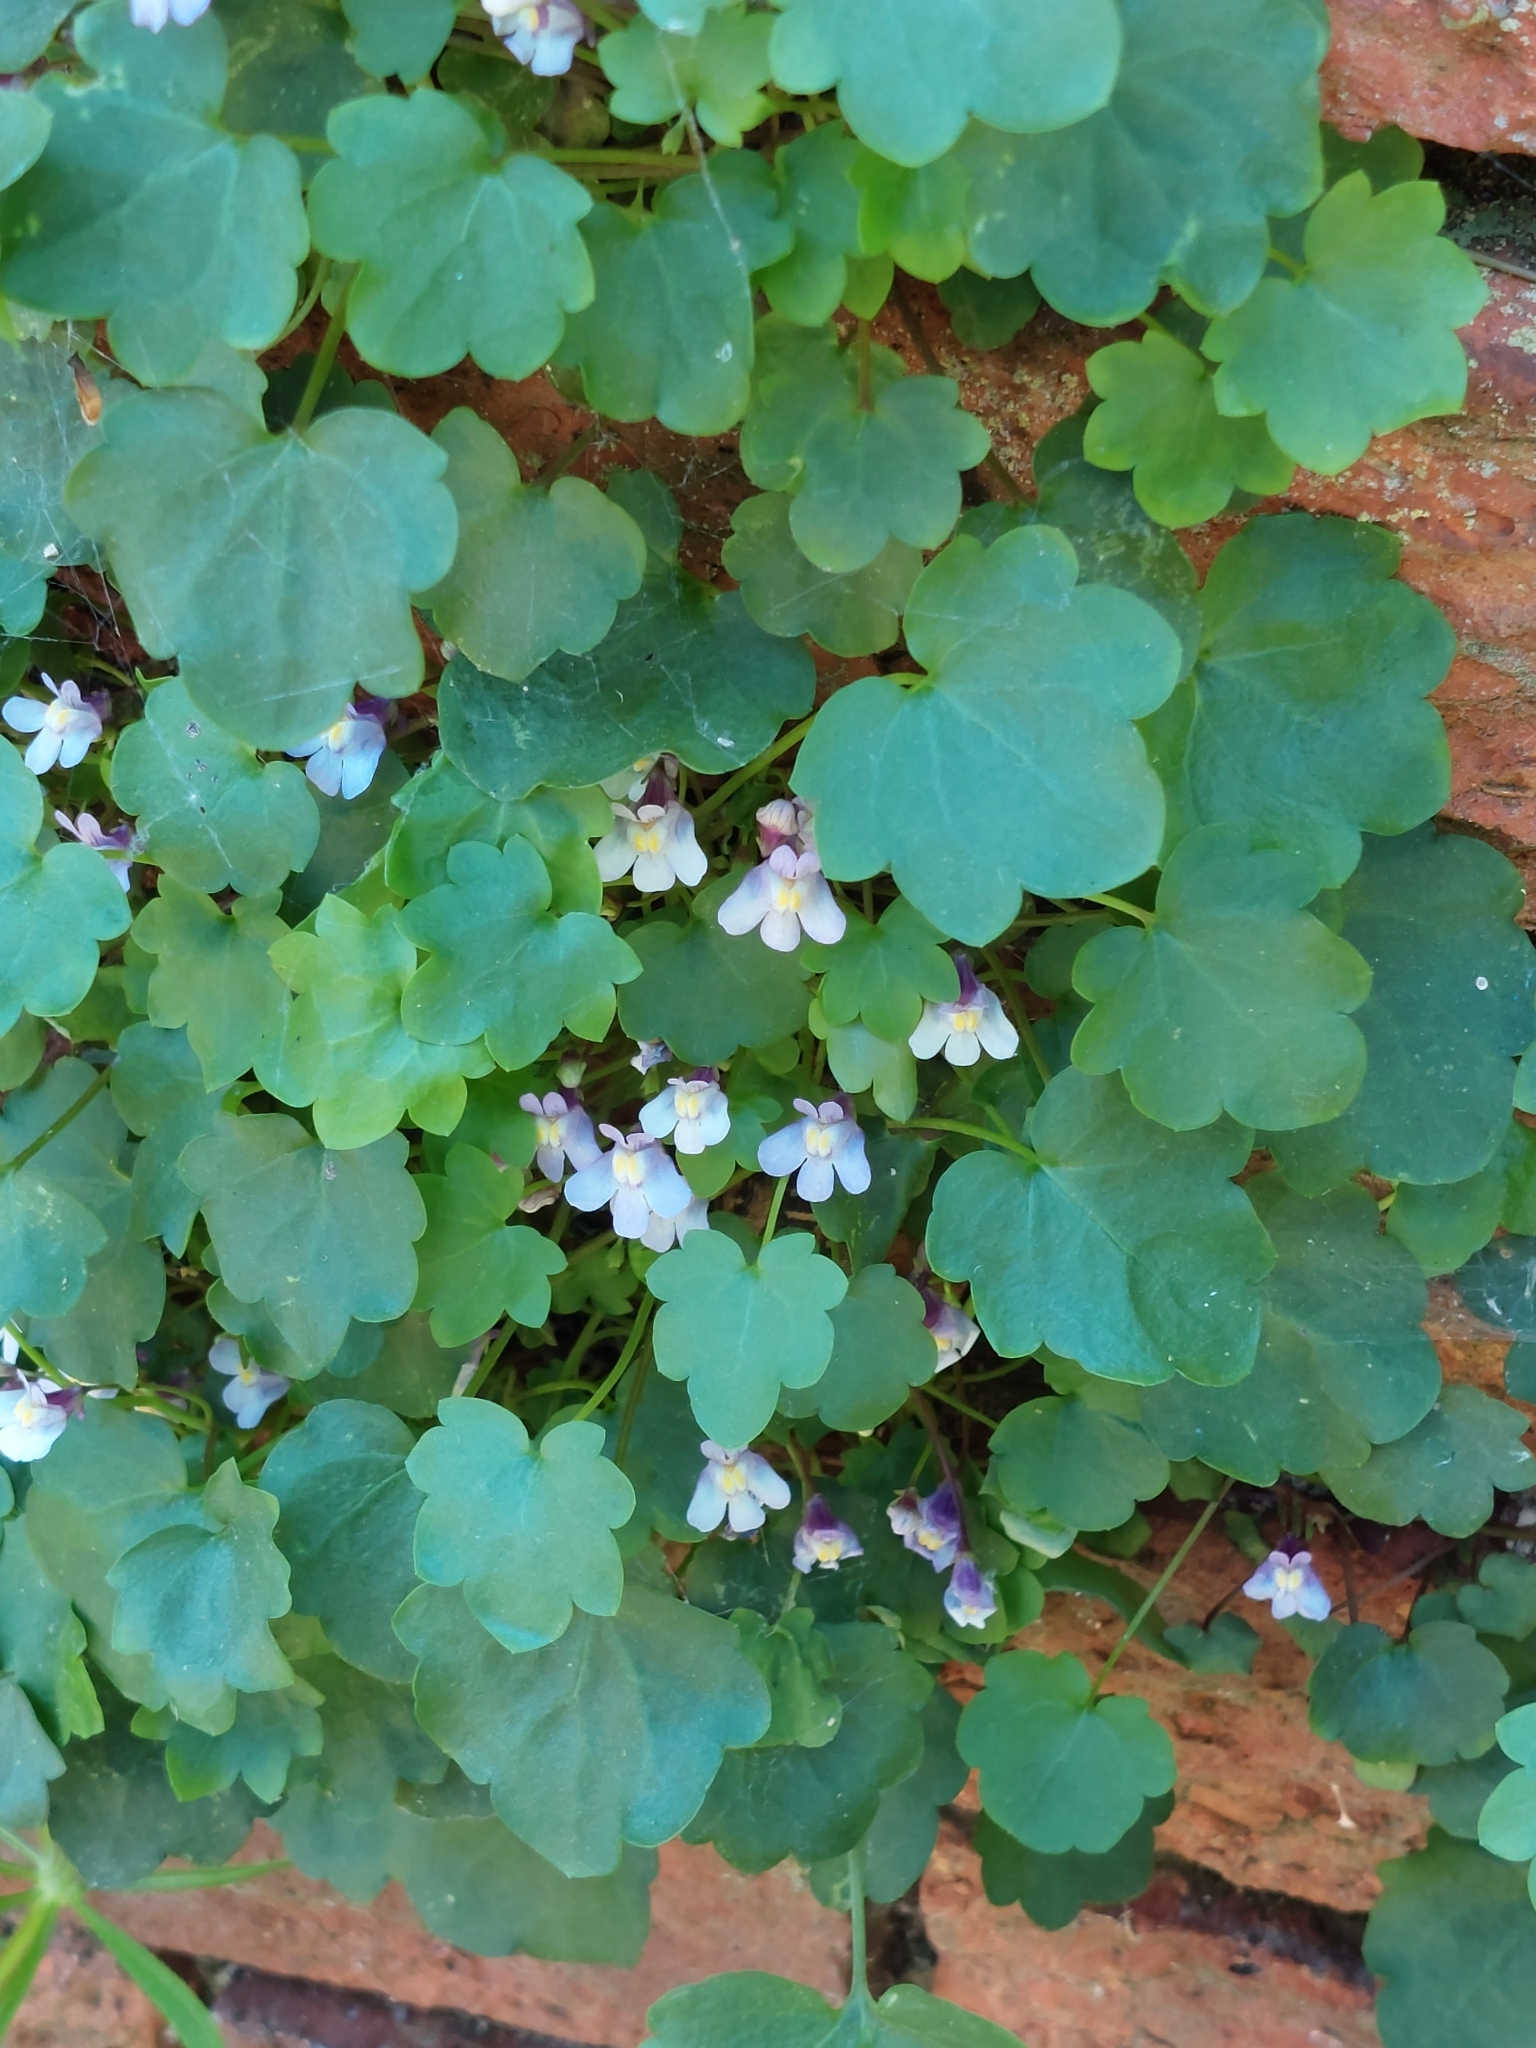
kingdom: Plantae
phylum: Tracheophyta
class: Magnoliopsida
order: Lamiales
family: Plantaginaceae
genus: Cymbalaria
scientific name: Cymbalaria muralis
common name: Ivy-leaved toadflax
